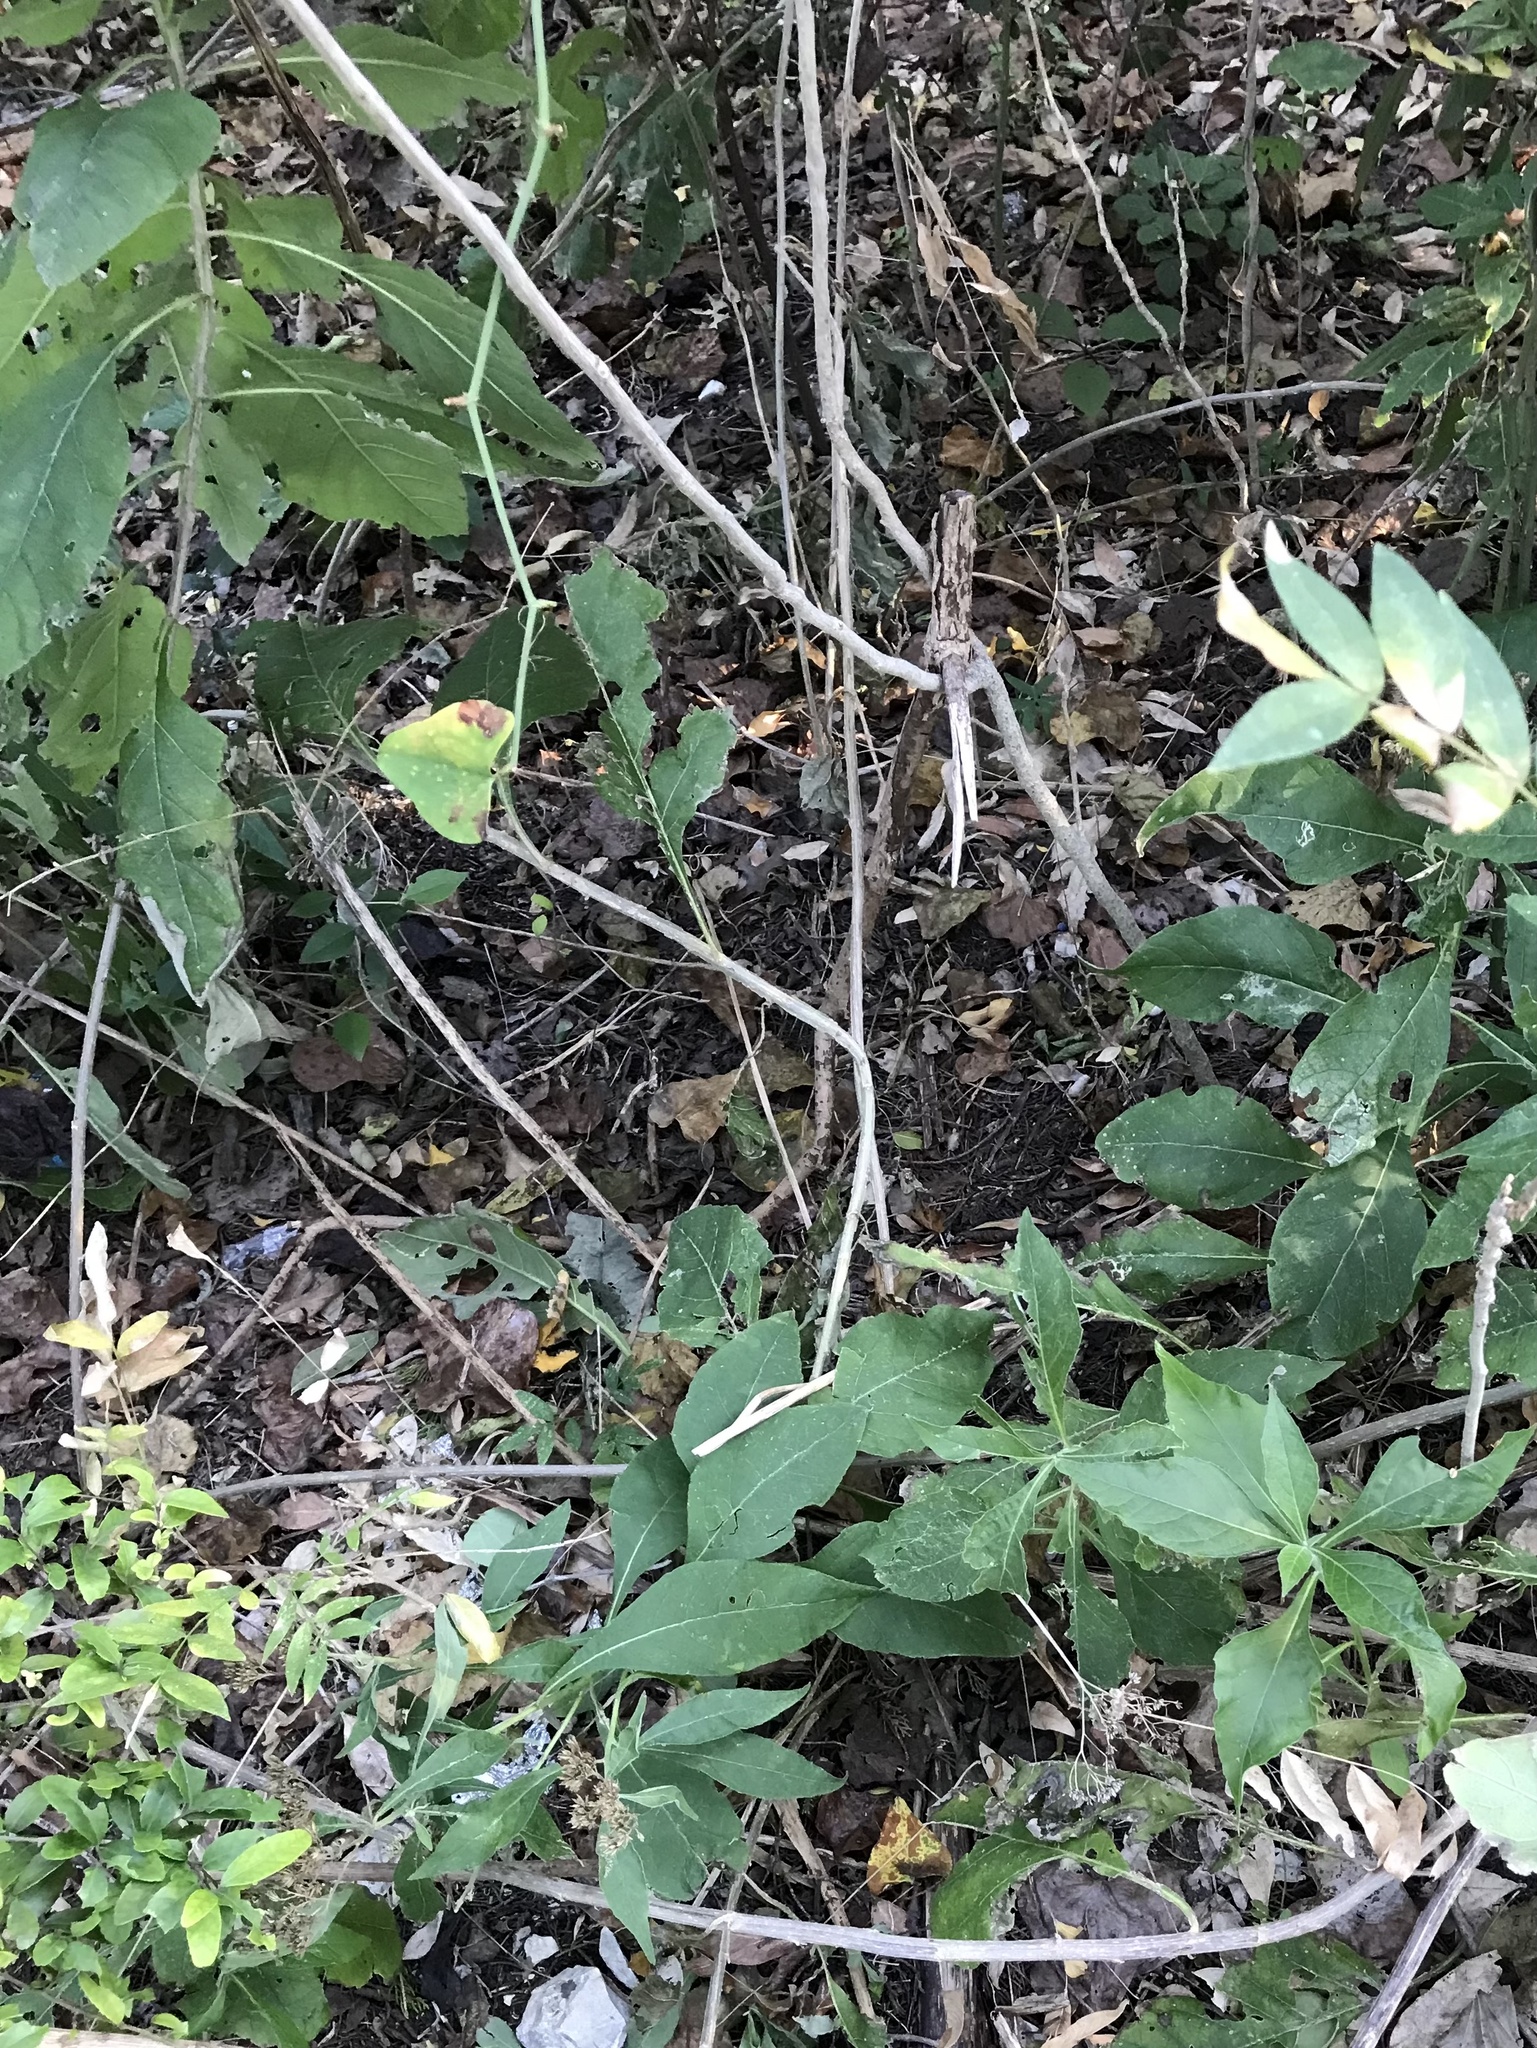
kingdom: Plantae
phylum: Tracheophyta
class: Magnoliopsida
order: Asterales
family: Asteraceae
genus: Verbesina
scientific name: Verbesina virginica
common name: Frostweed
